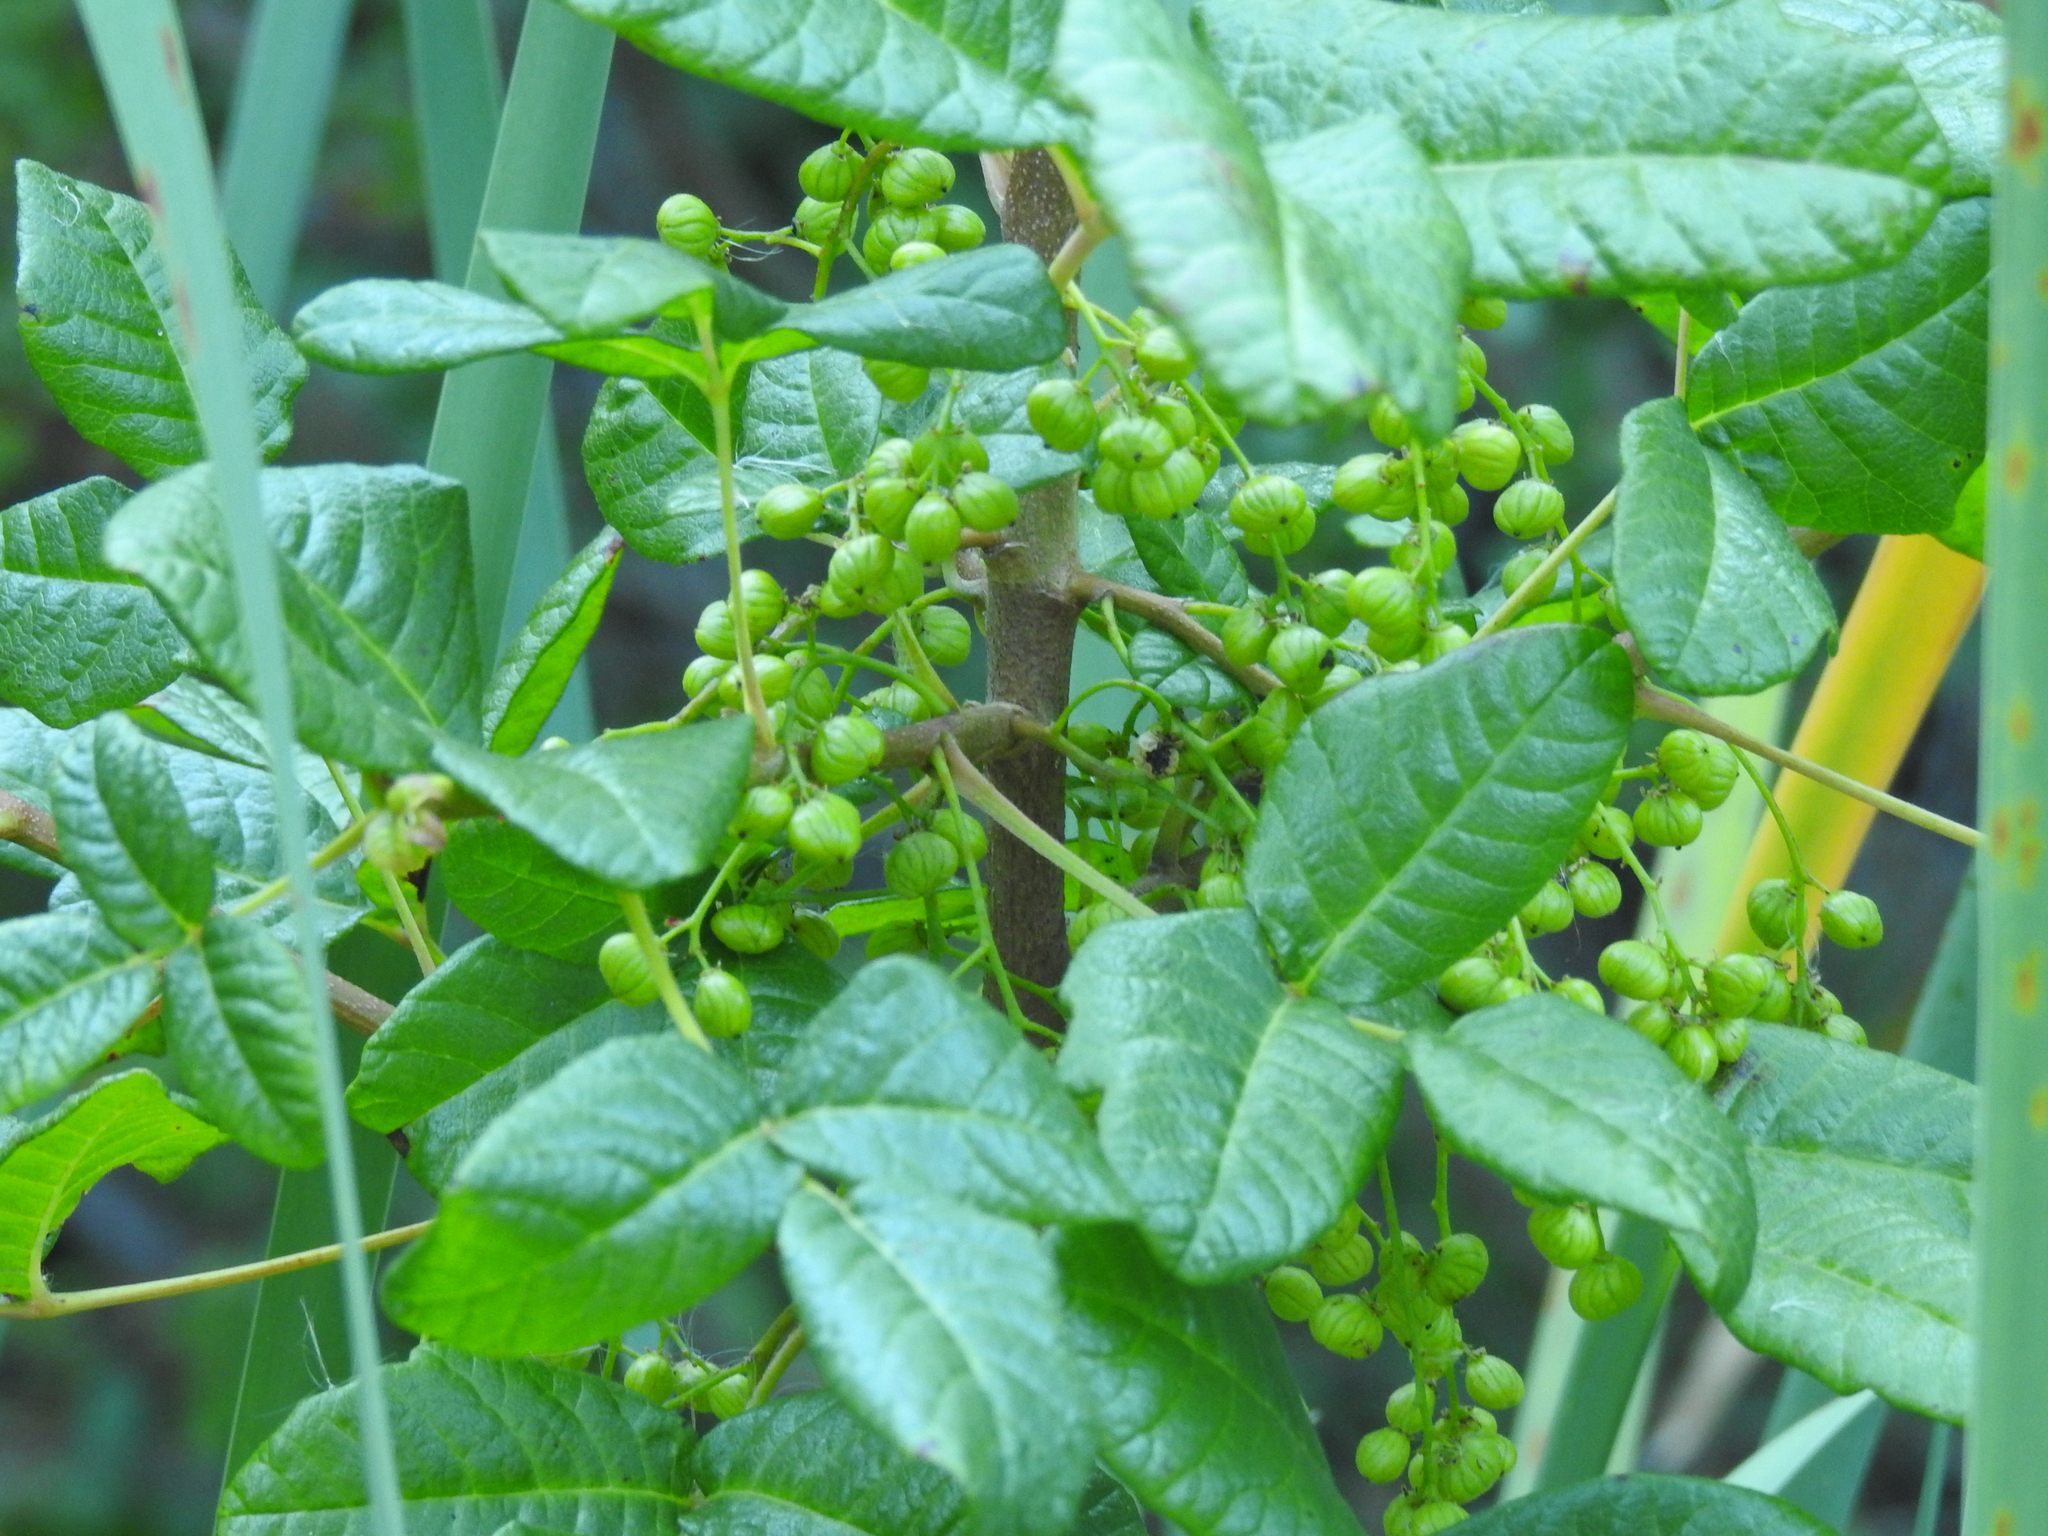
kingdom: Plantae
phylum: Tracheophyta
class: Magnoliopsida
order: Sapindales
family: Anacardiaceae
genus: Toxicodendron
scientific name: Toxicodendron diversilobum
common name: Pacific poison-oak
